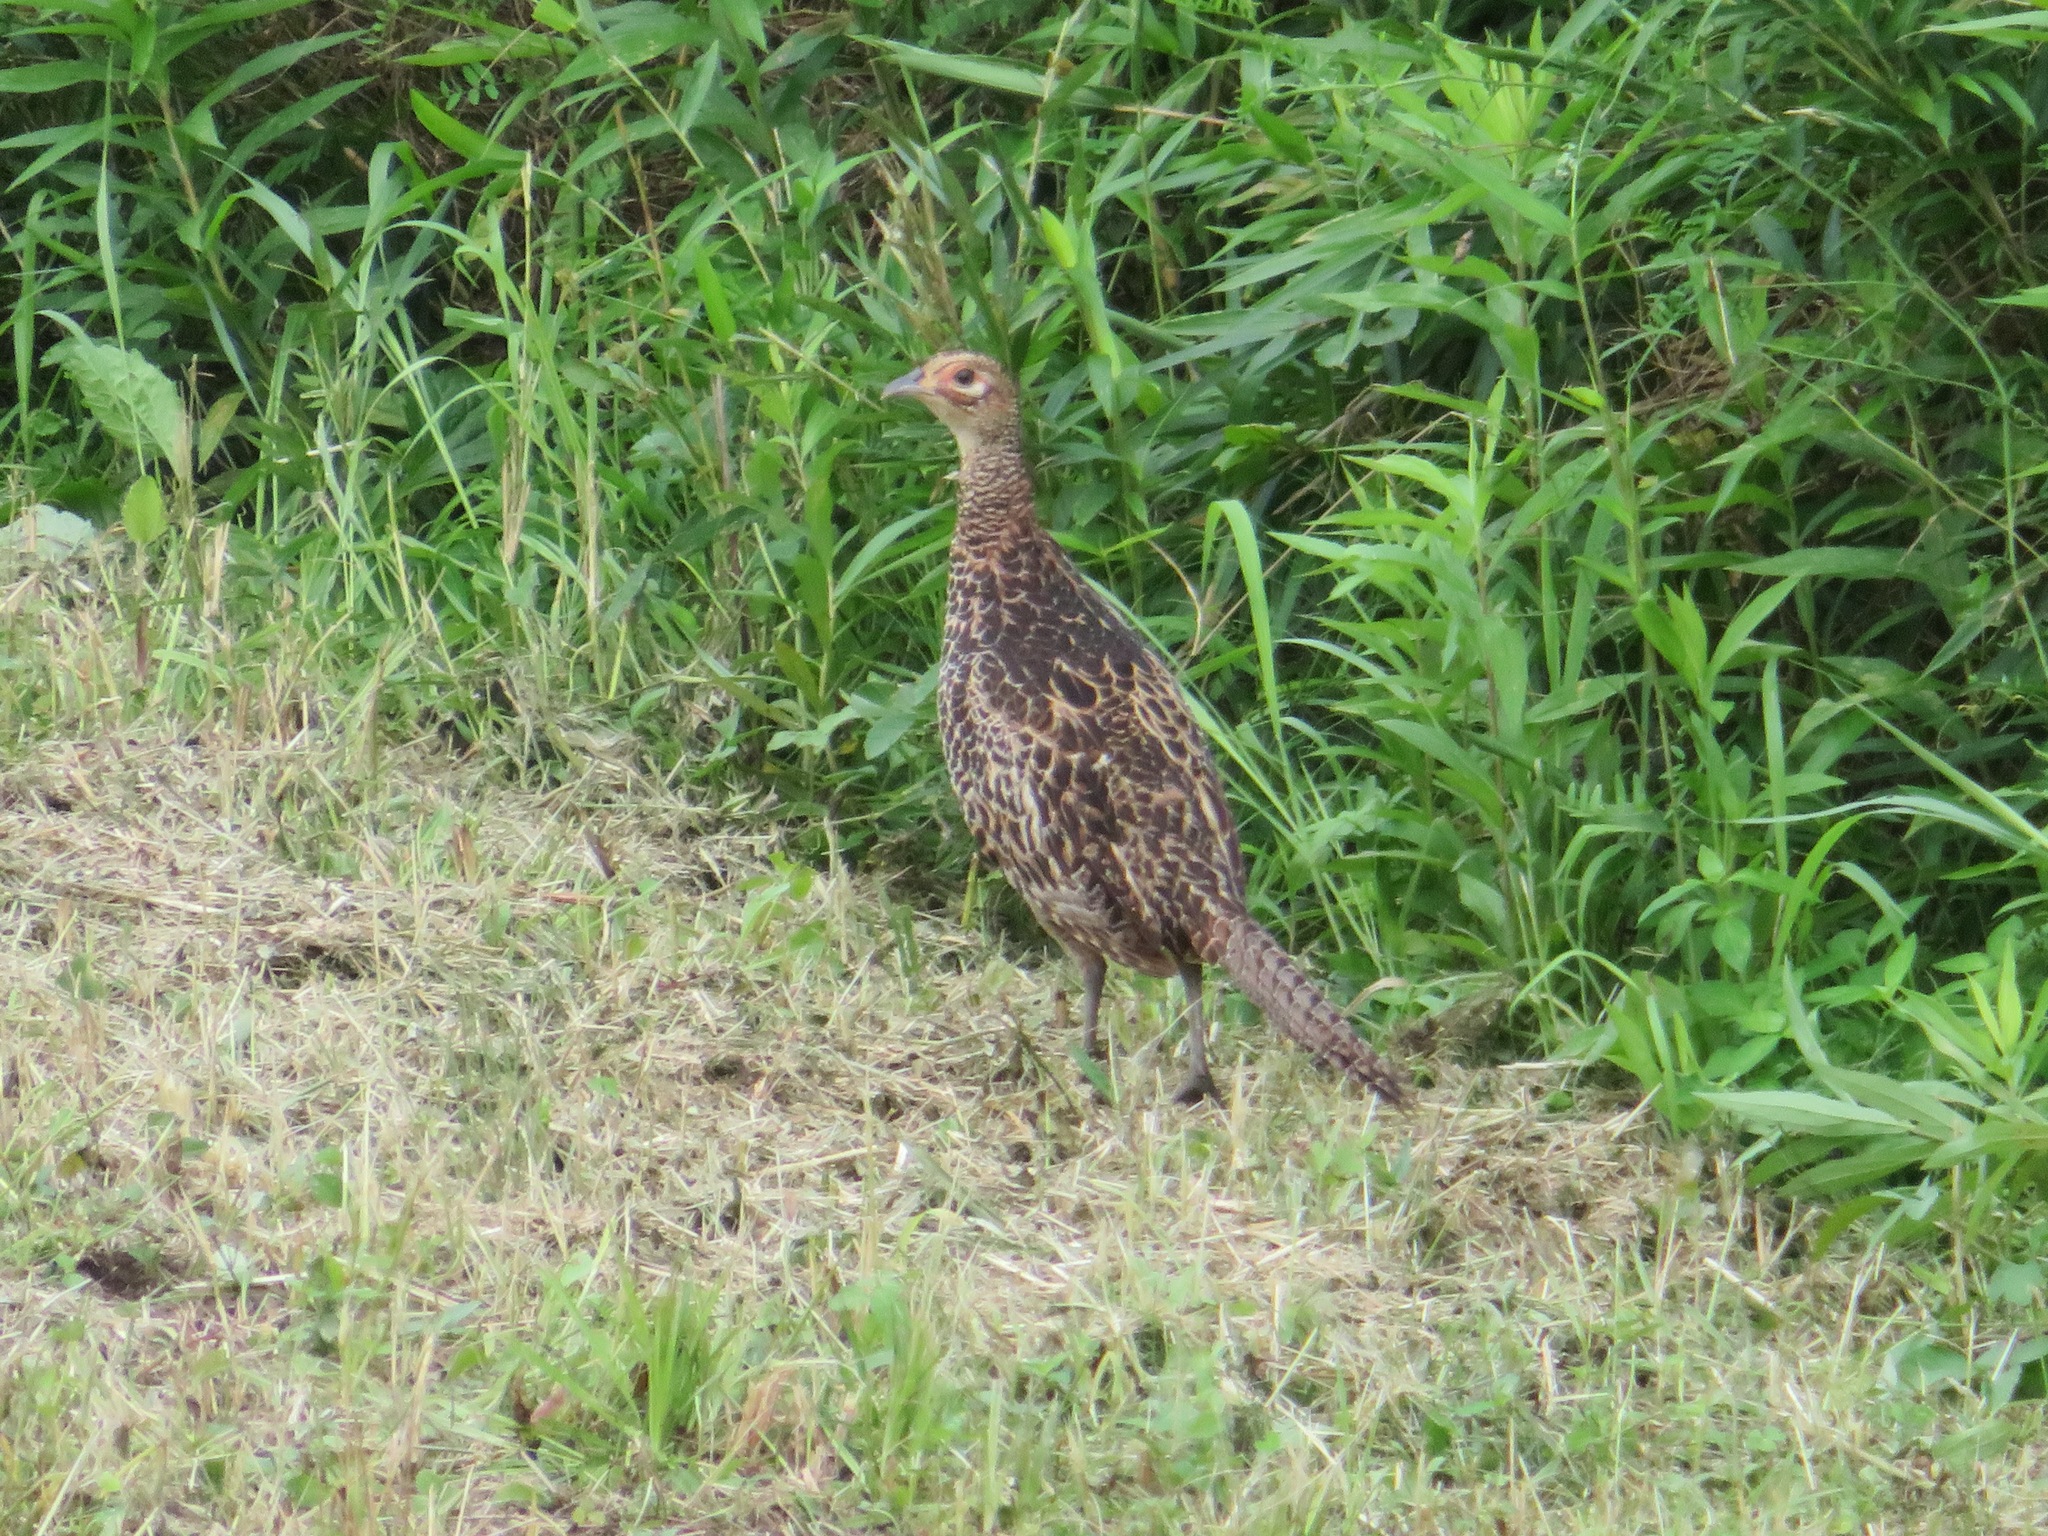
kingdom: Animalia
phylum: Chordata
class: Aves
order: Galliformes
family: Phasianidae
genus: Phasianus
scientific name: Phasianus versicolor
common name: Green pheasant
